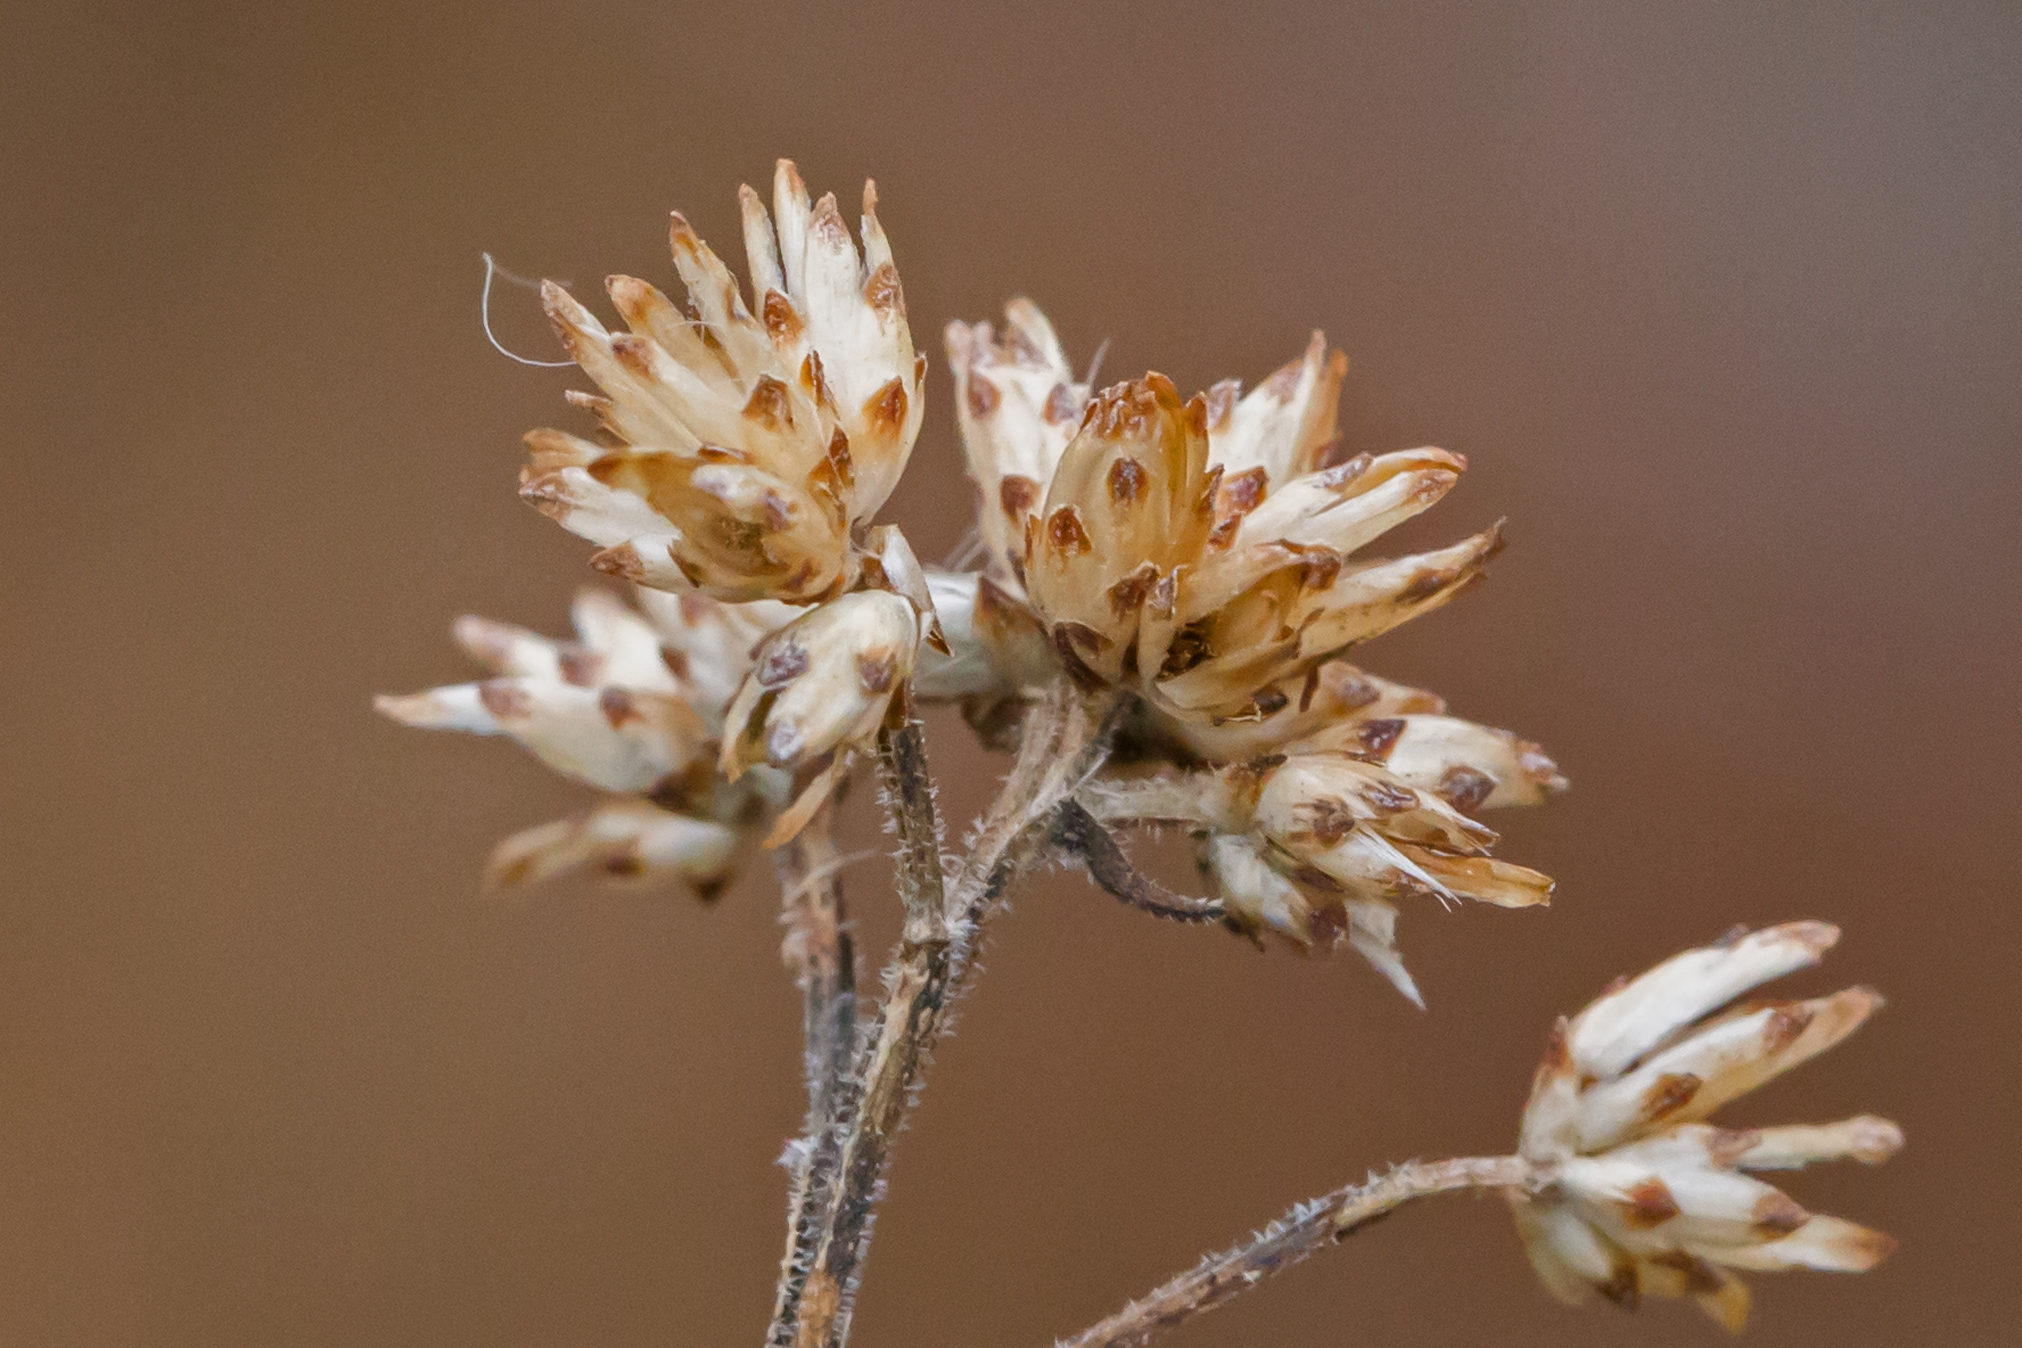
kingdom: Plantae
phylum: Tracheophyta
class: Magnoliopsida
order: Asterales
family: Asteraceae
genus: Euthamia
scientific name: Euthamia graminifolia
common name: Common goldentop
